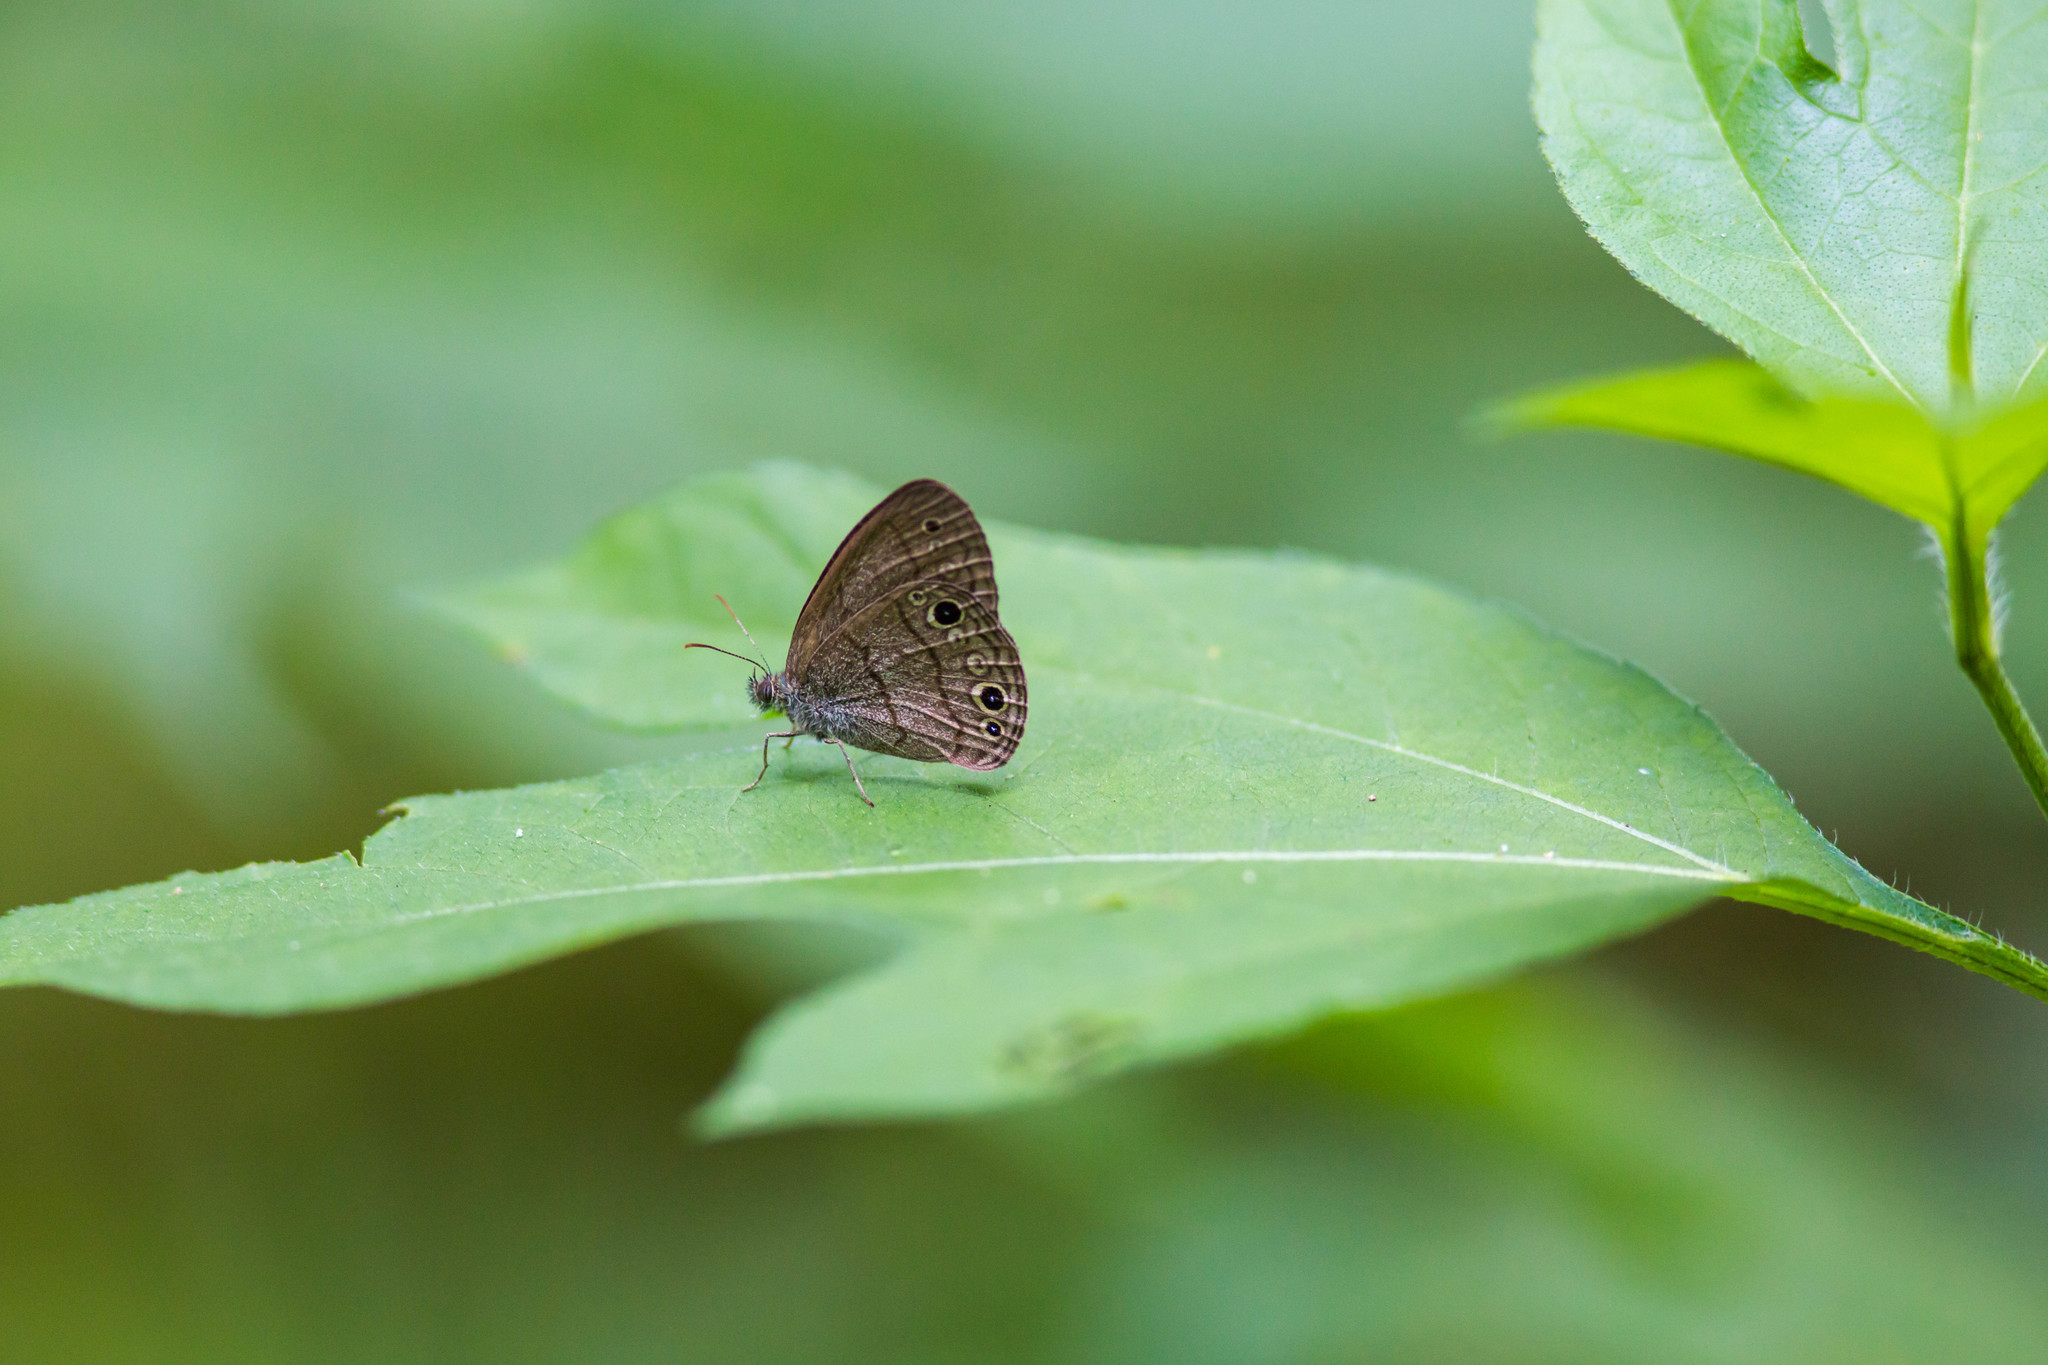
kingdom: Animalia
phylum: Arthropoda
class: Insecta
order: Lepidoptera
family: Nymphalidae
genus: Hermeuptychia
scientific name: Hermeuptychia hermes
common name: Hermes satyr
